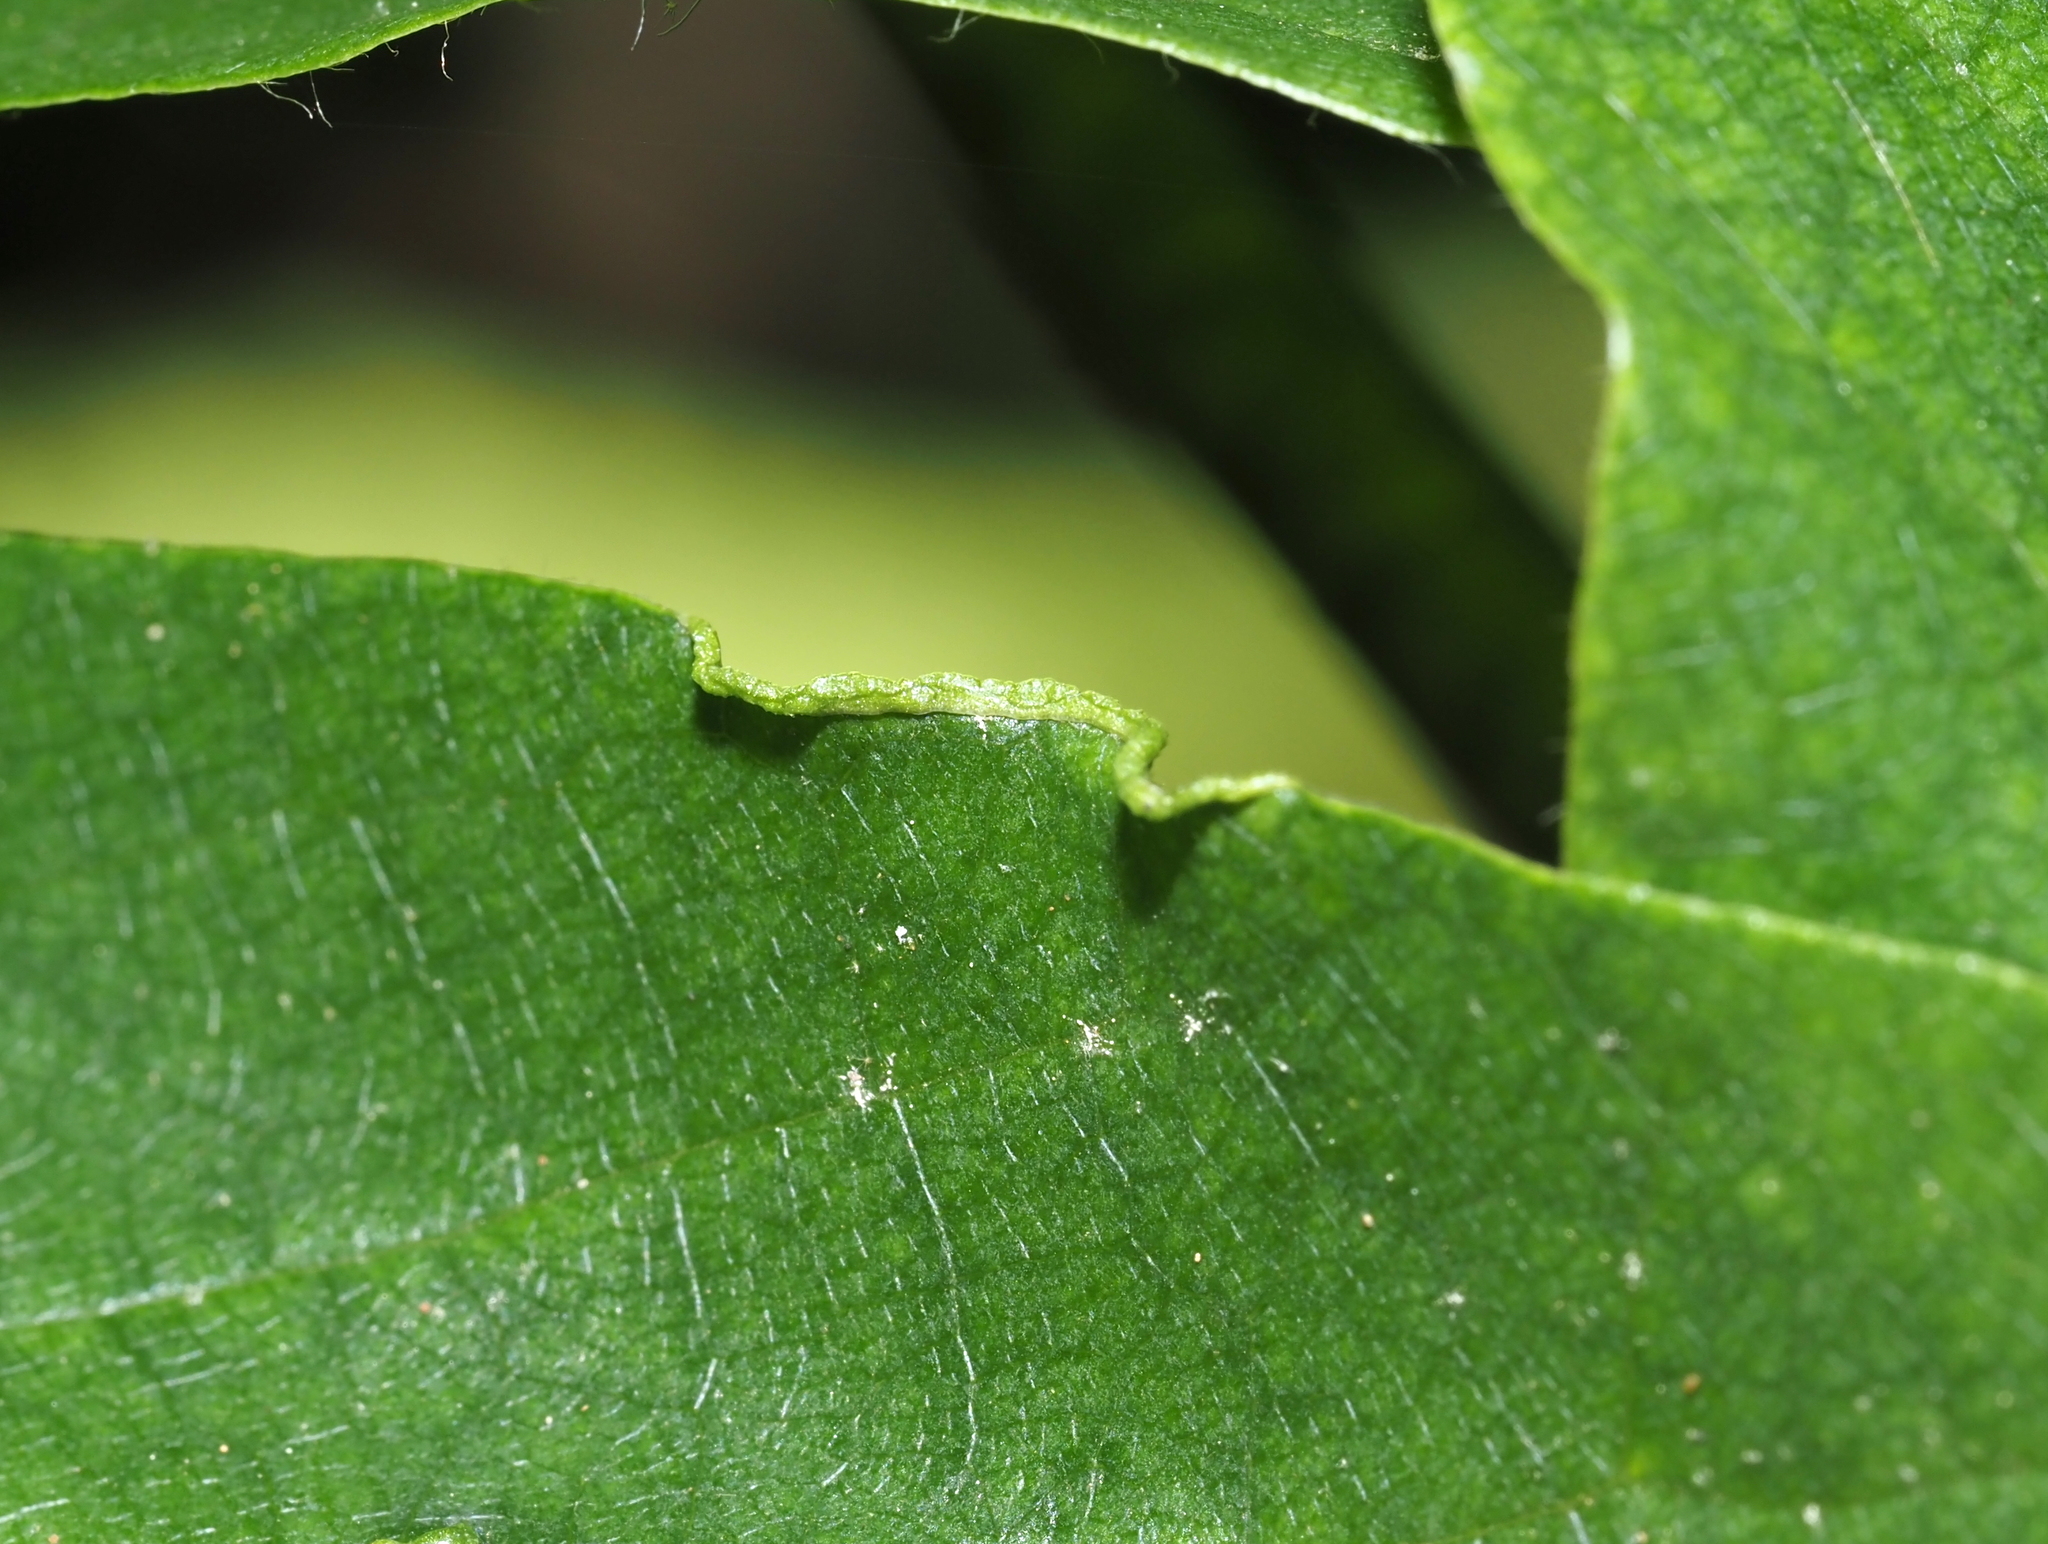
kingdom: Animalia
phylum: Arthropoda
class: Arachnida
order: Trombidiformes
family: Eriophyidae
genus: Aceria
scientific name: Aceria
